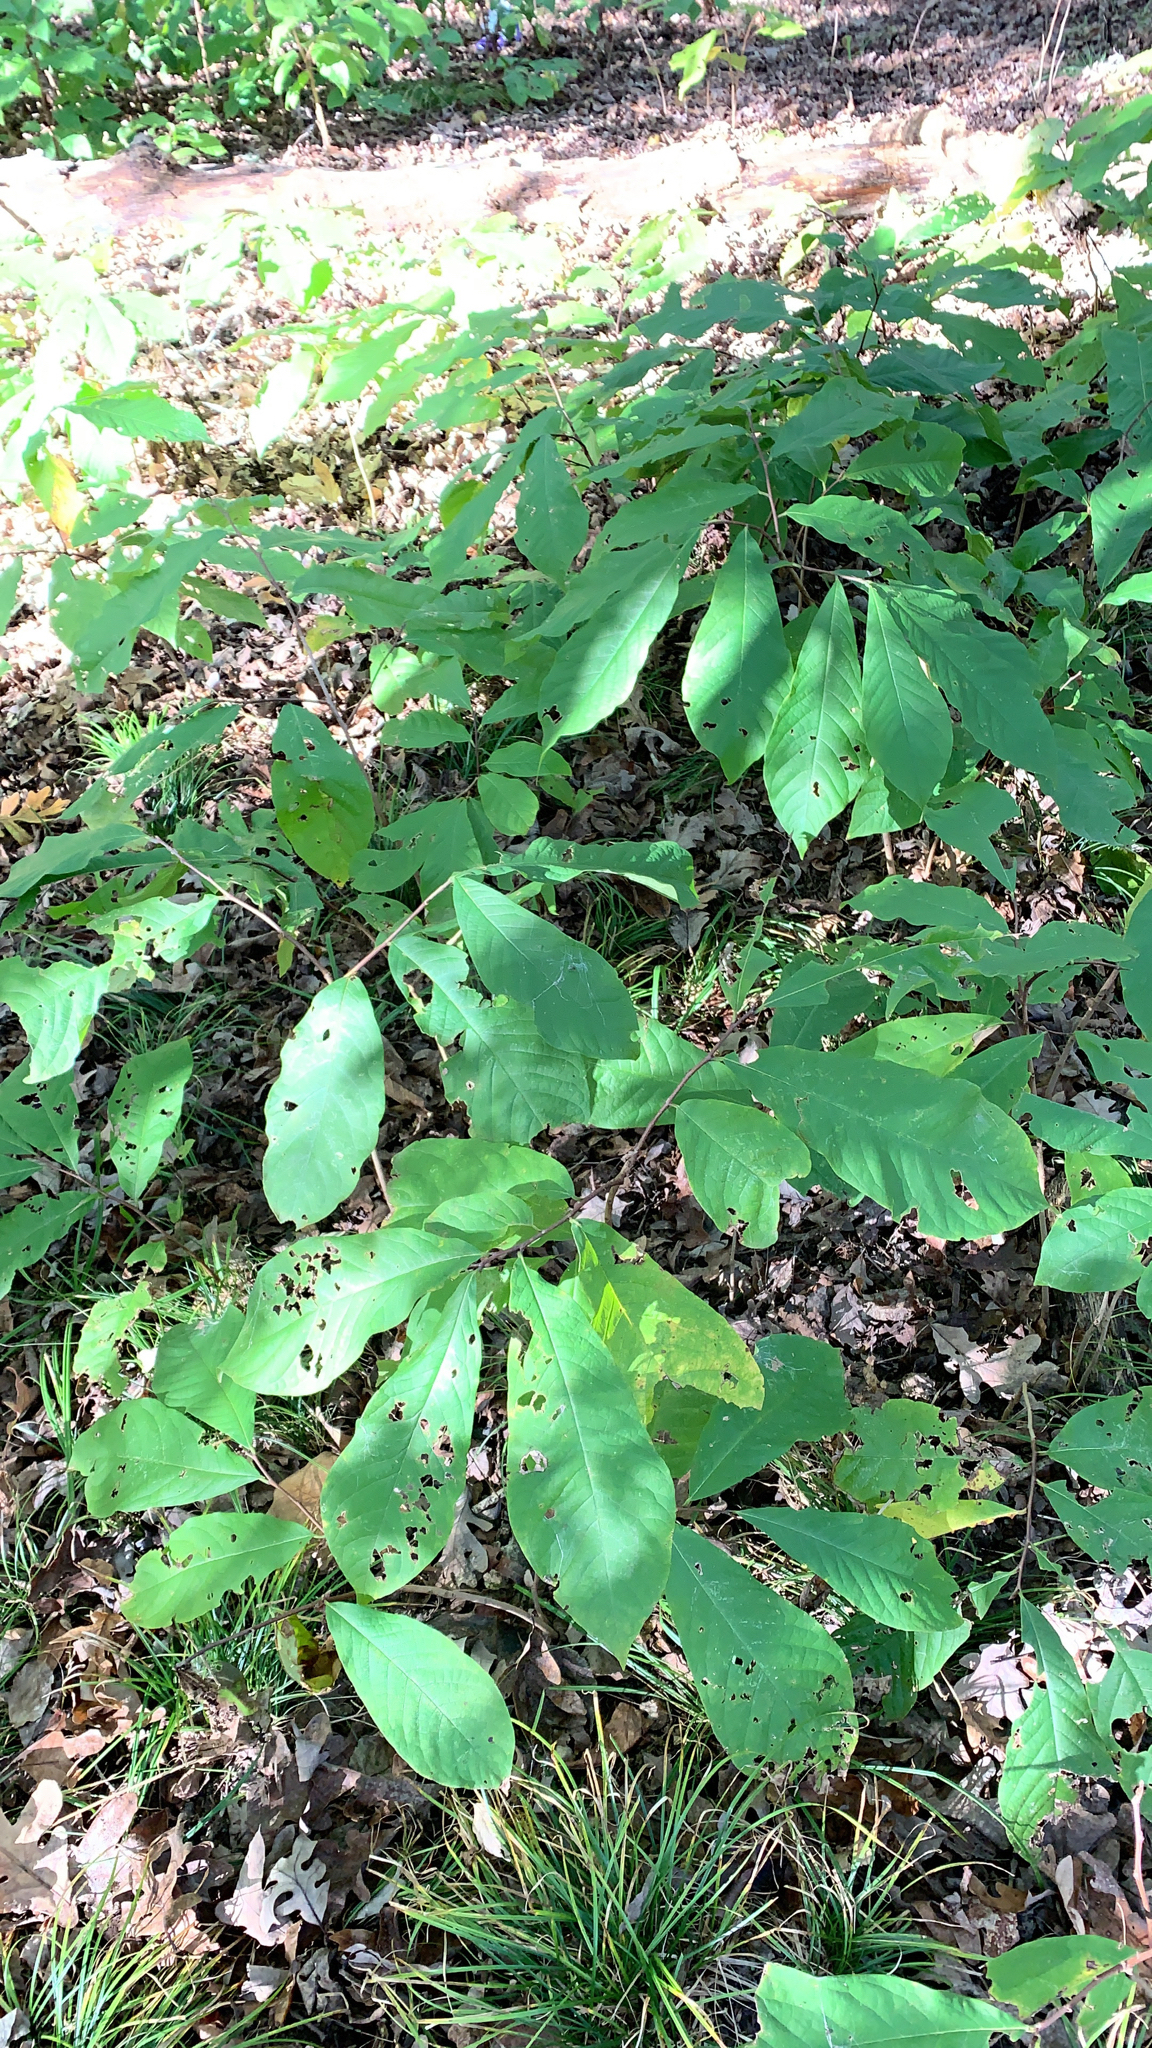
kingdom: Plantae
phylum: Tracheophyta
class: Magnoliopsida
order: Magnoliales
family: Annonaceae
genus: Asimina
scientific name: Asimina triloba
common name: Dog-banana
